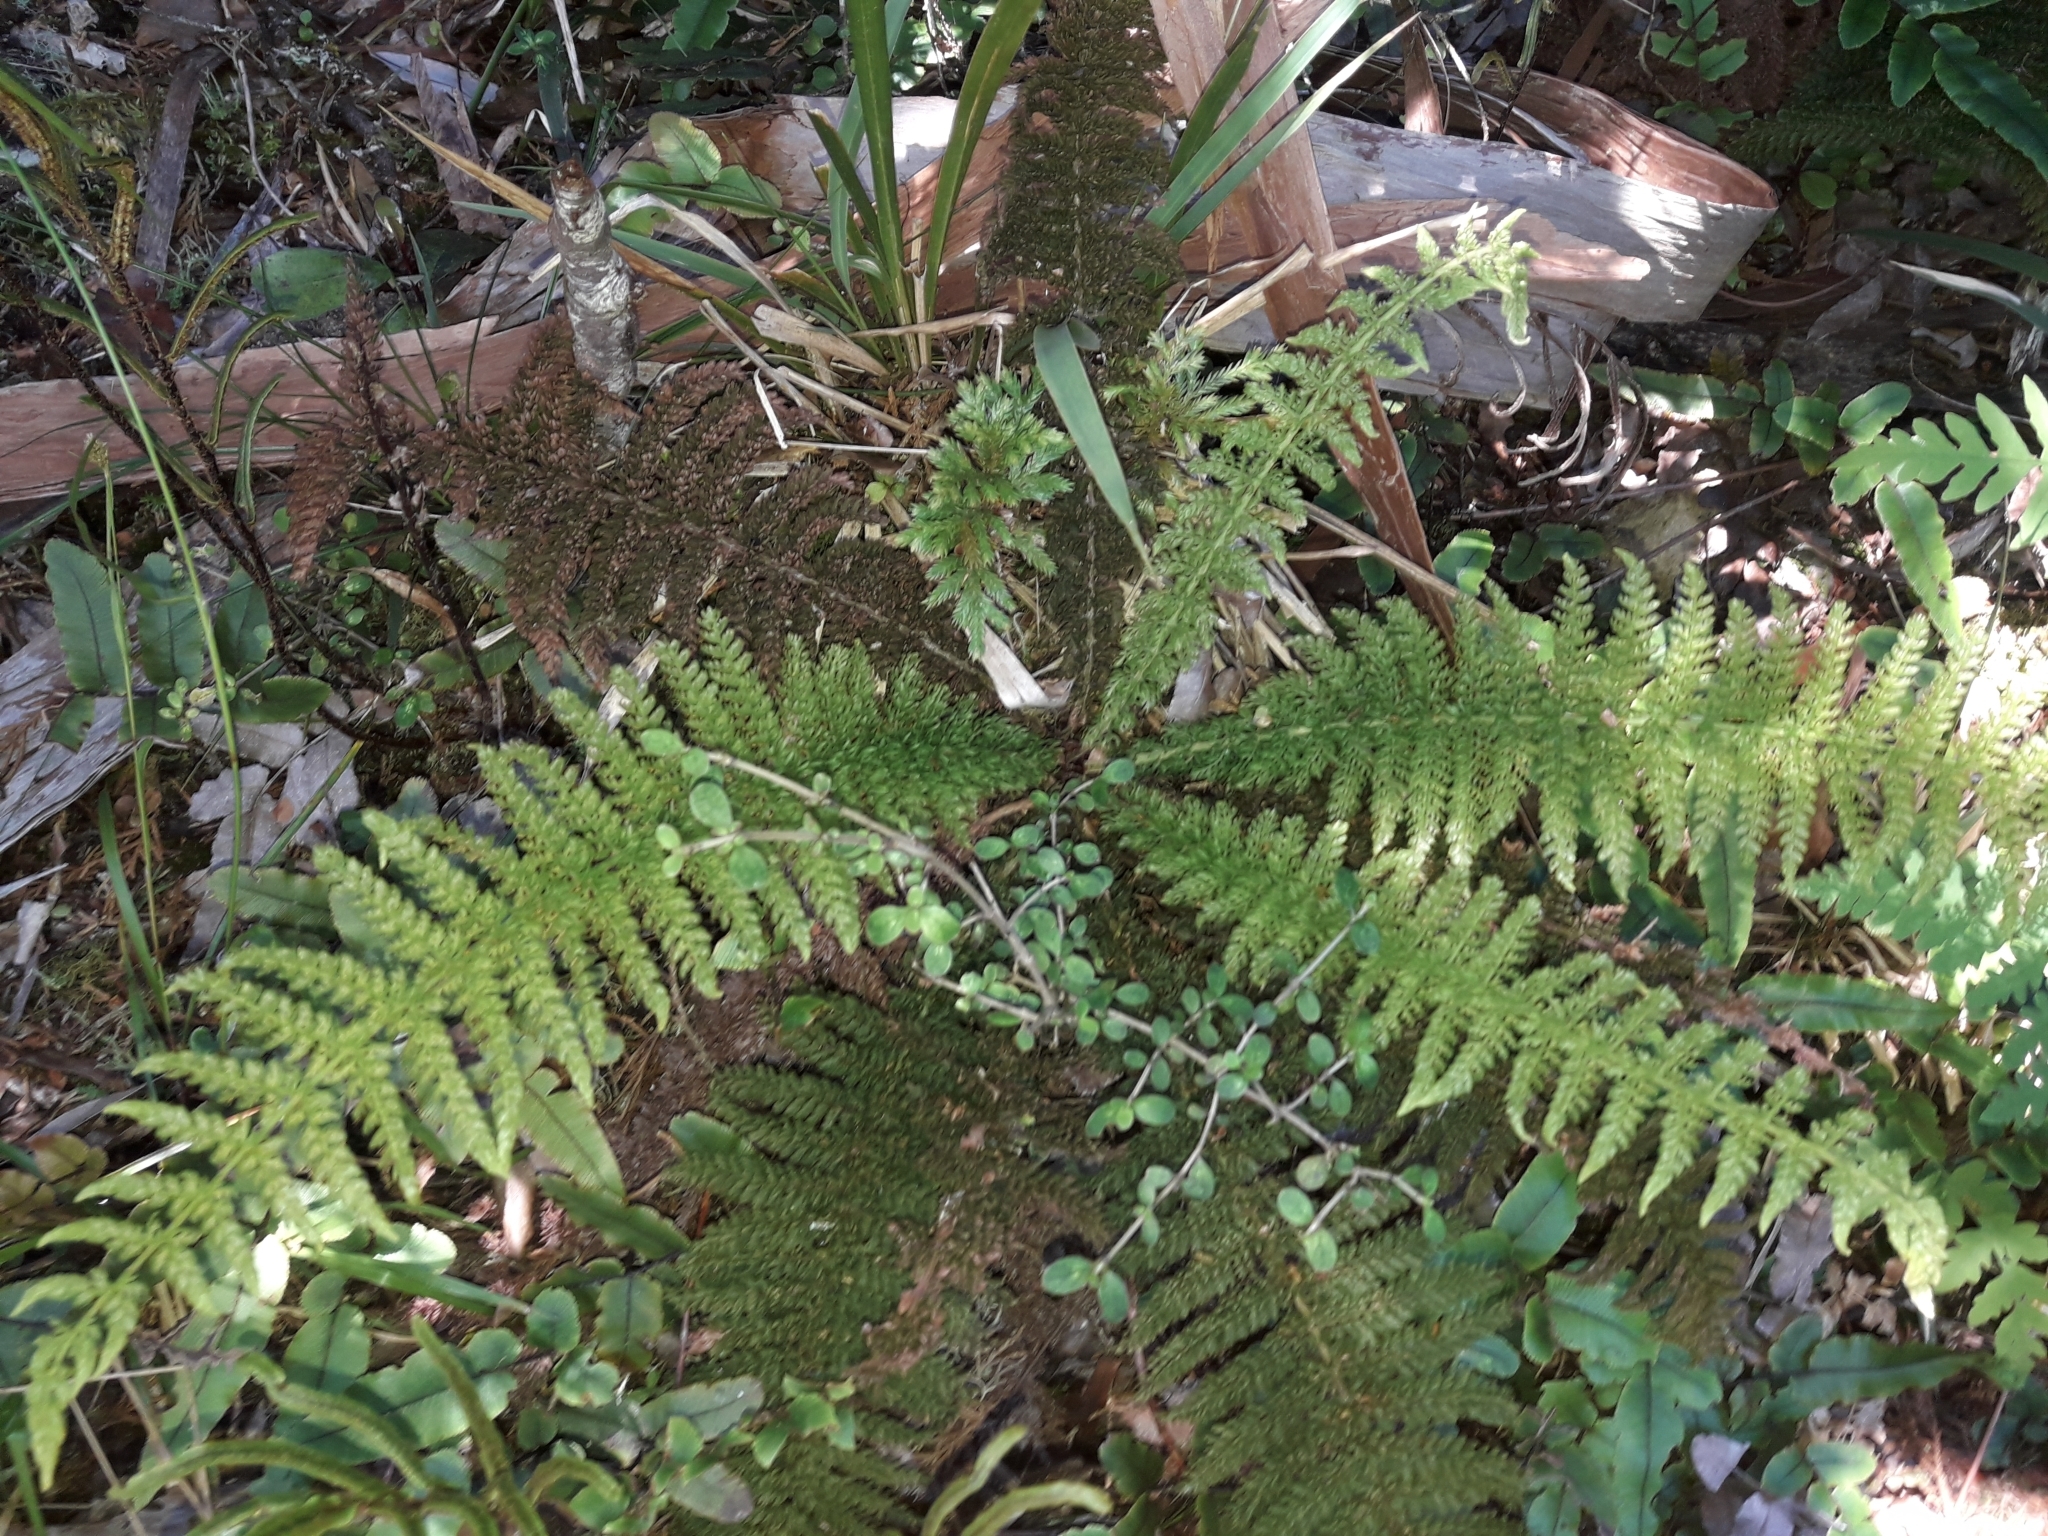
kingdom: Plantae
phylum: Tracheophyta
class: Polypodiopsida
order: Osmundales
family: Osmundaceae
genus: Leptopteris
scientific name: Leptopteris superba
